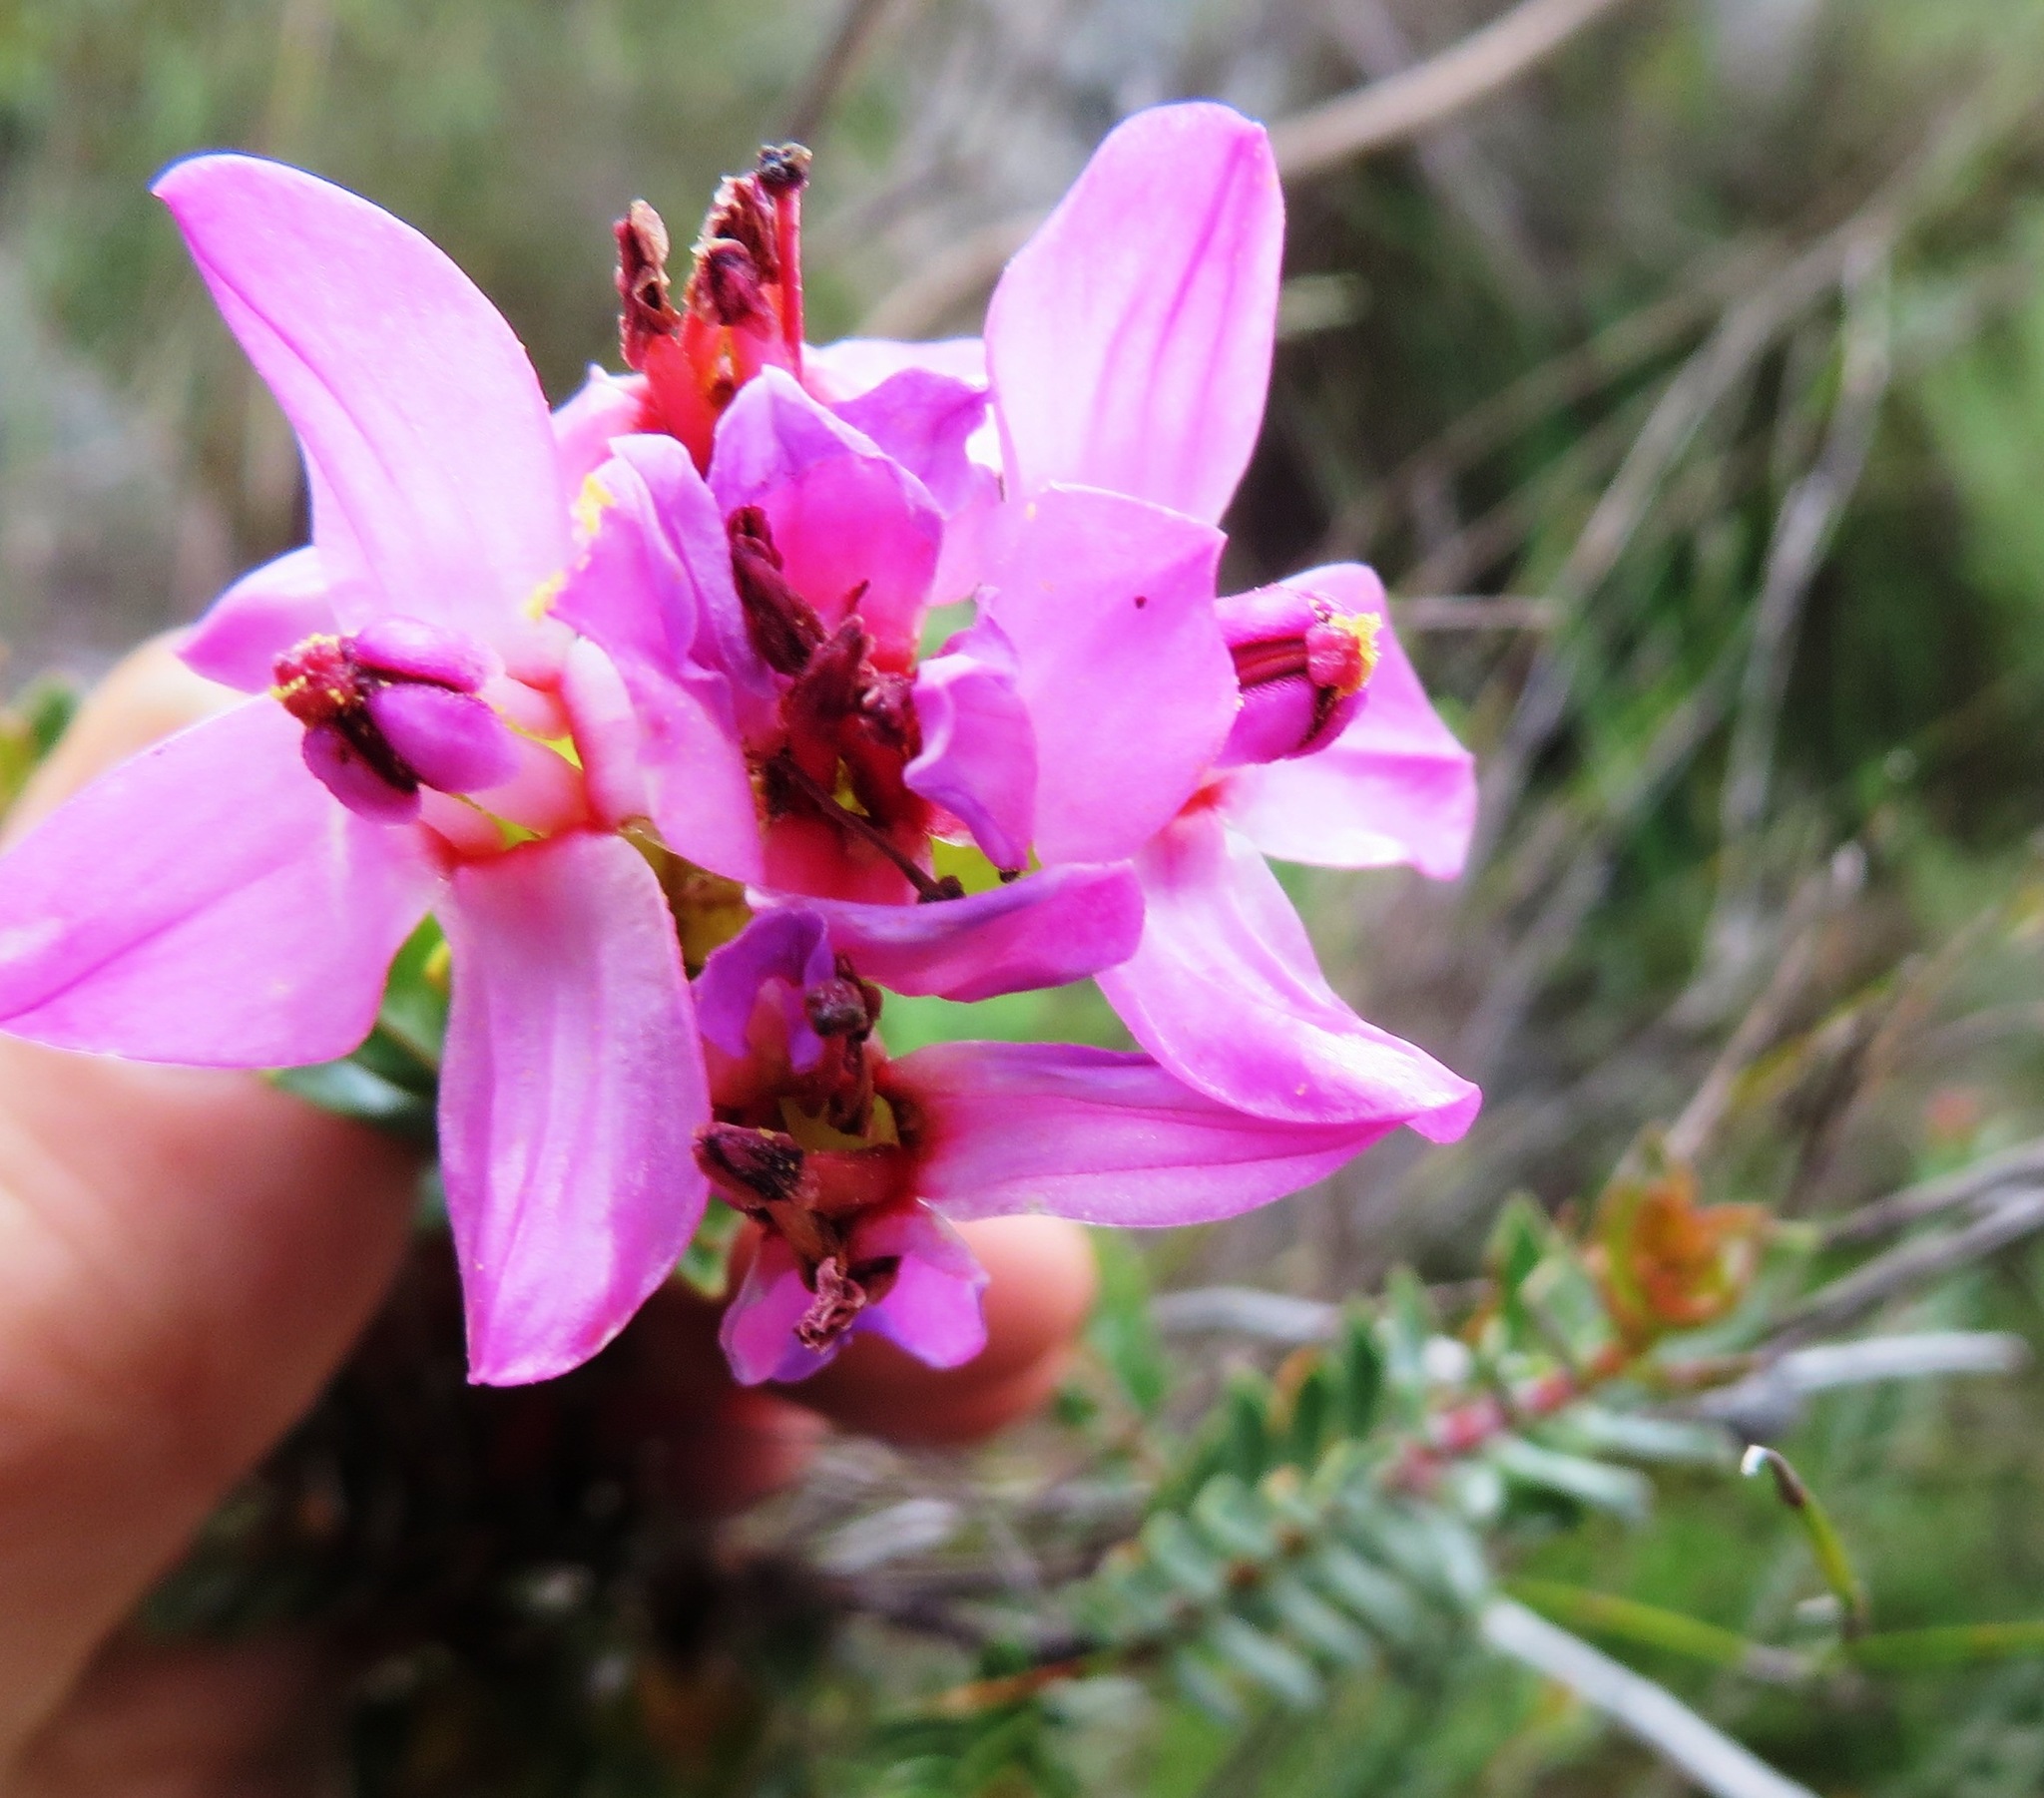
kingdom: Plantae
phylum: Tracheophyta
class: Magnoliopsida
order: Myrtales
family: Penaeaceae
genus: Saltera
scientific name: Saltera sarcocolla
